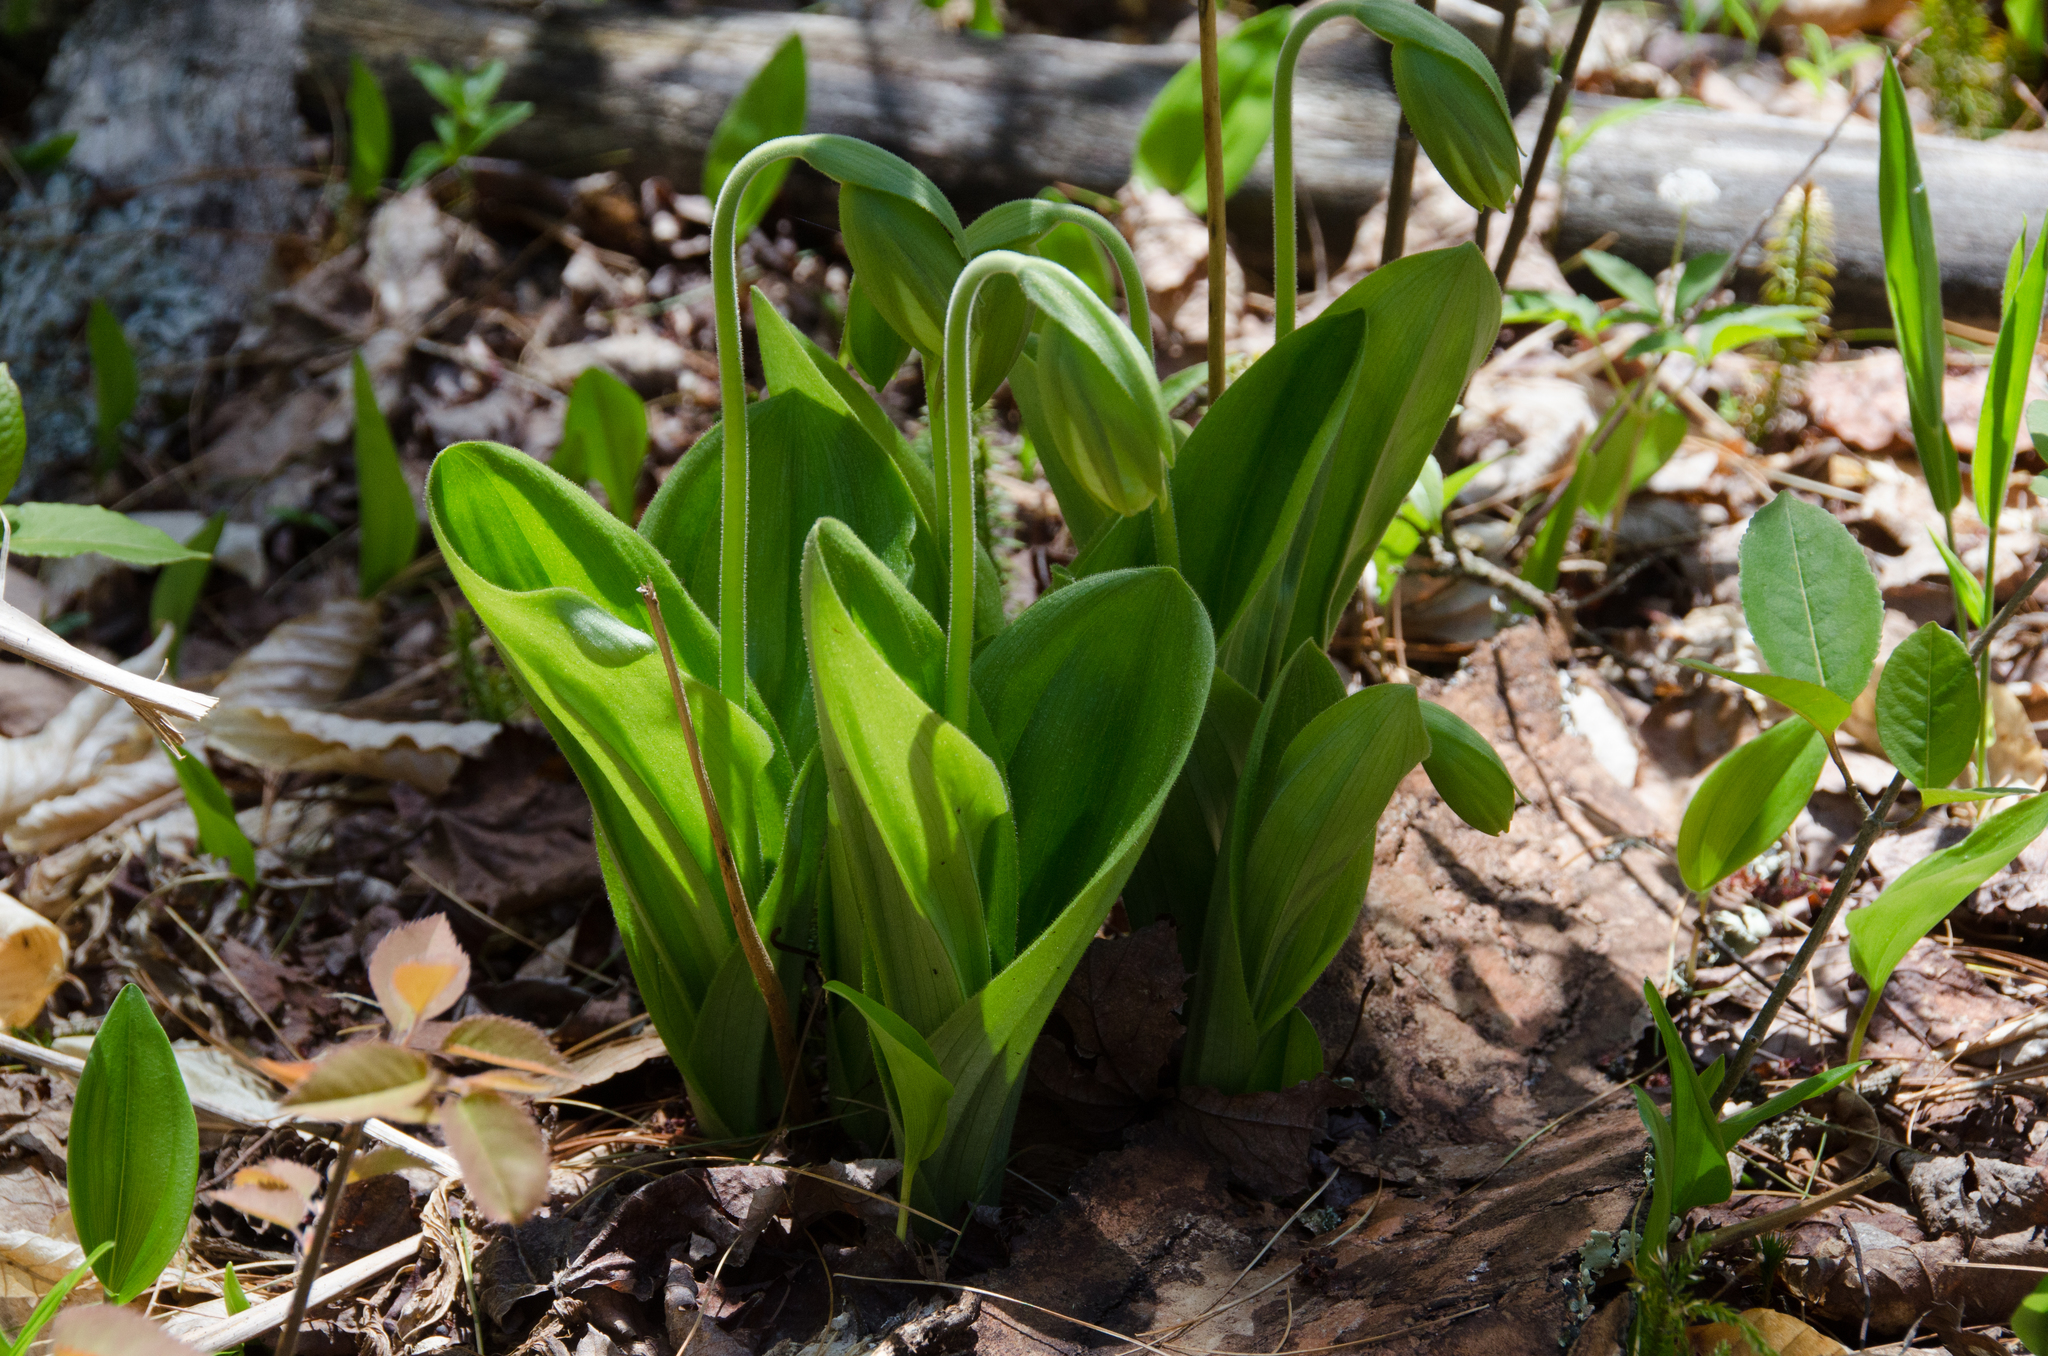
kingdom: Plantae
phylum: Tracheophyta
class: Liliopsida
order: Asparagales
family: Orchidaceae
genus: Cypripedium
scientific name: Cypripedium acaule
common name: Pink lady's-slipper
